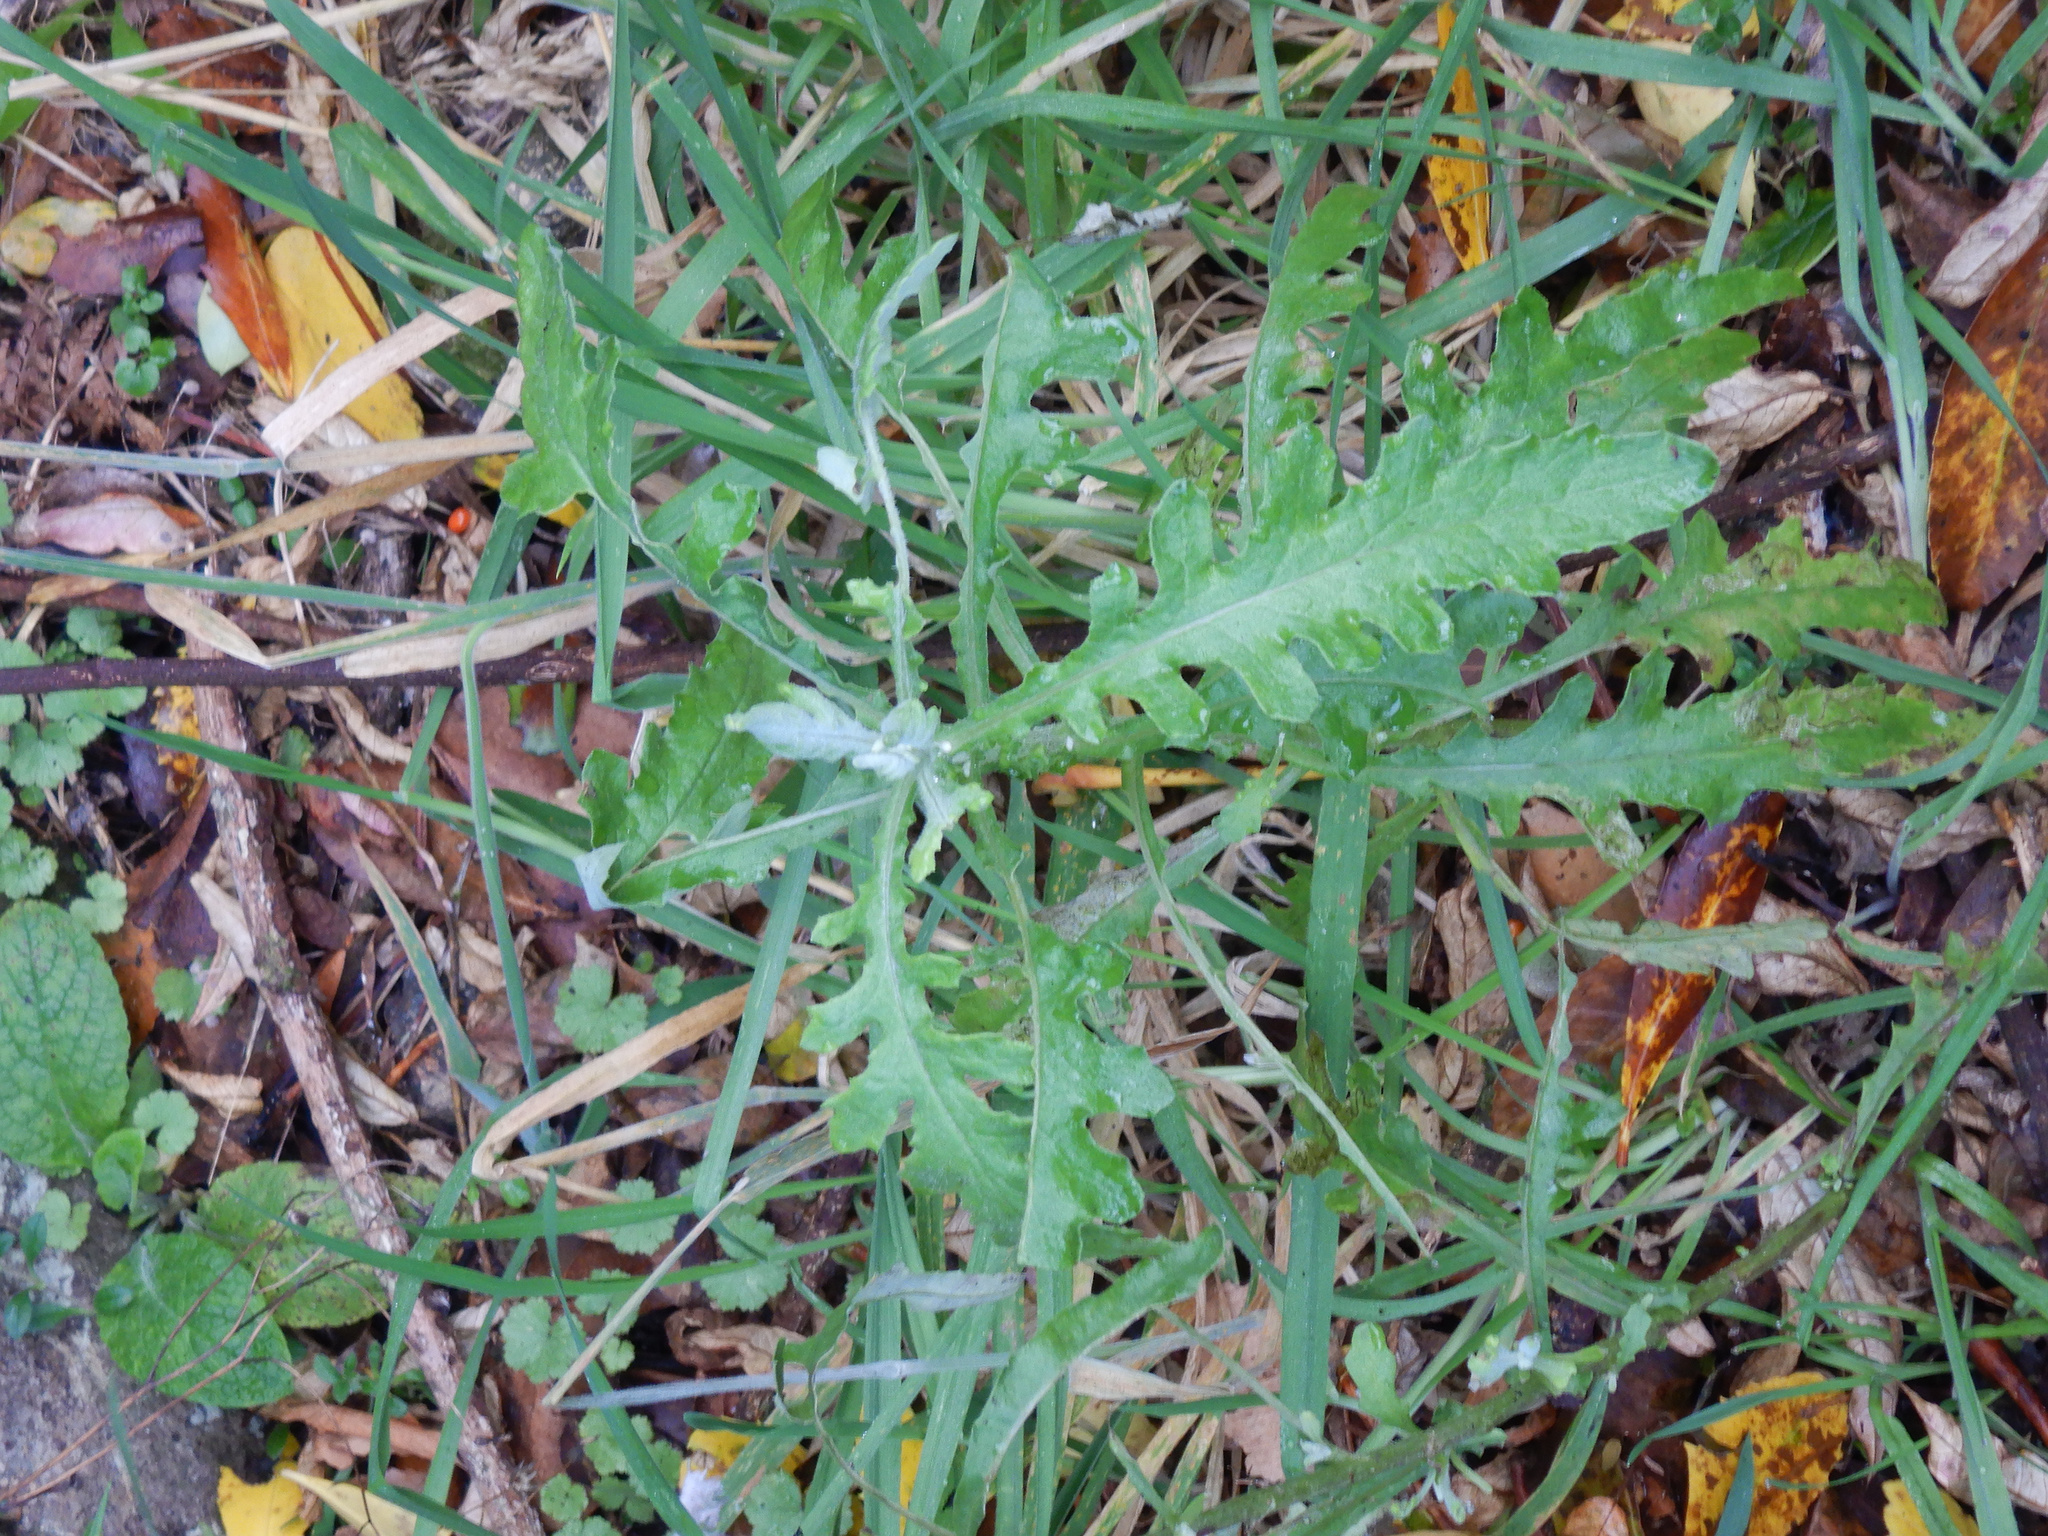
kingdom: Plantae
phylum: Tracheophyta
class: Magnoliopsida
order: Asterales
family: Asteraceae
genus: Senecio
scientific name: Senecio glomeratus
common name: Cutleaf burnweed
